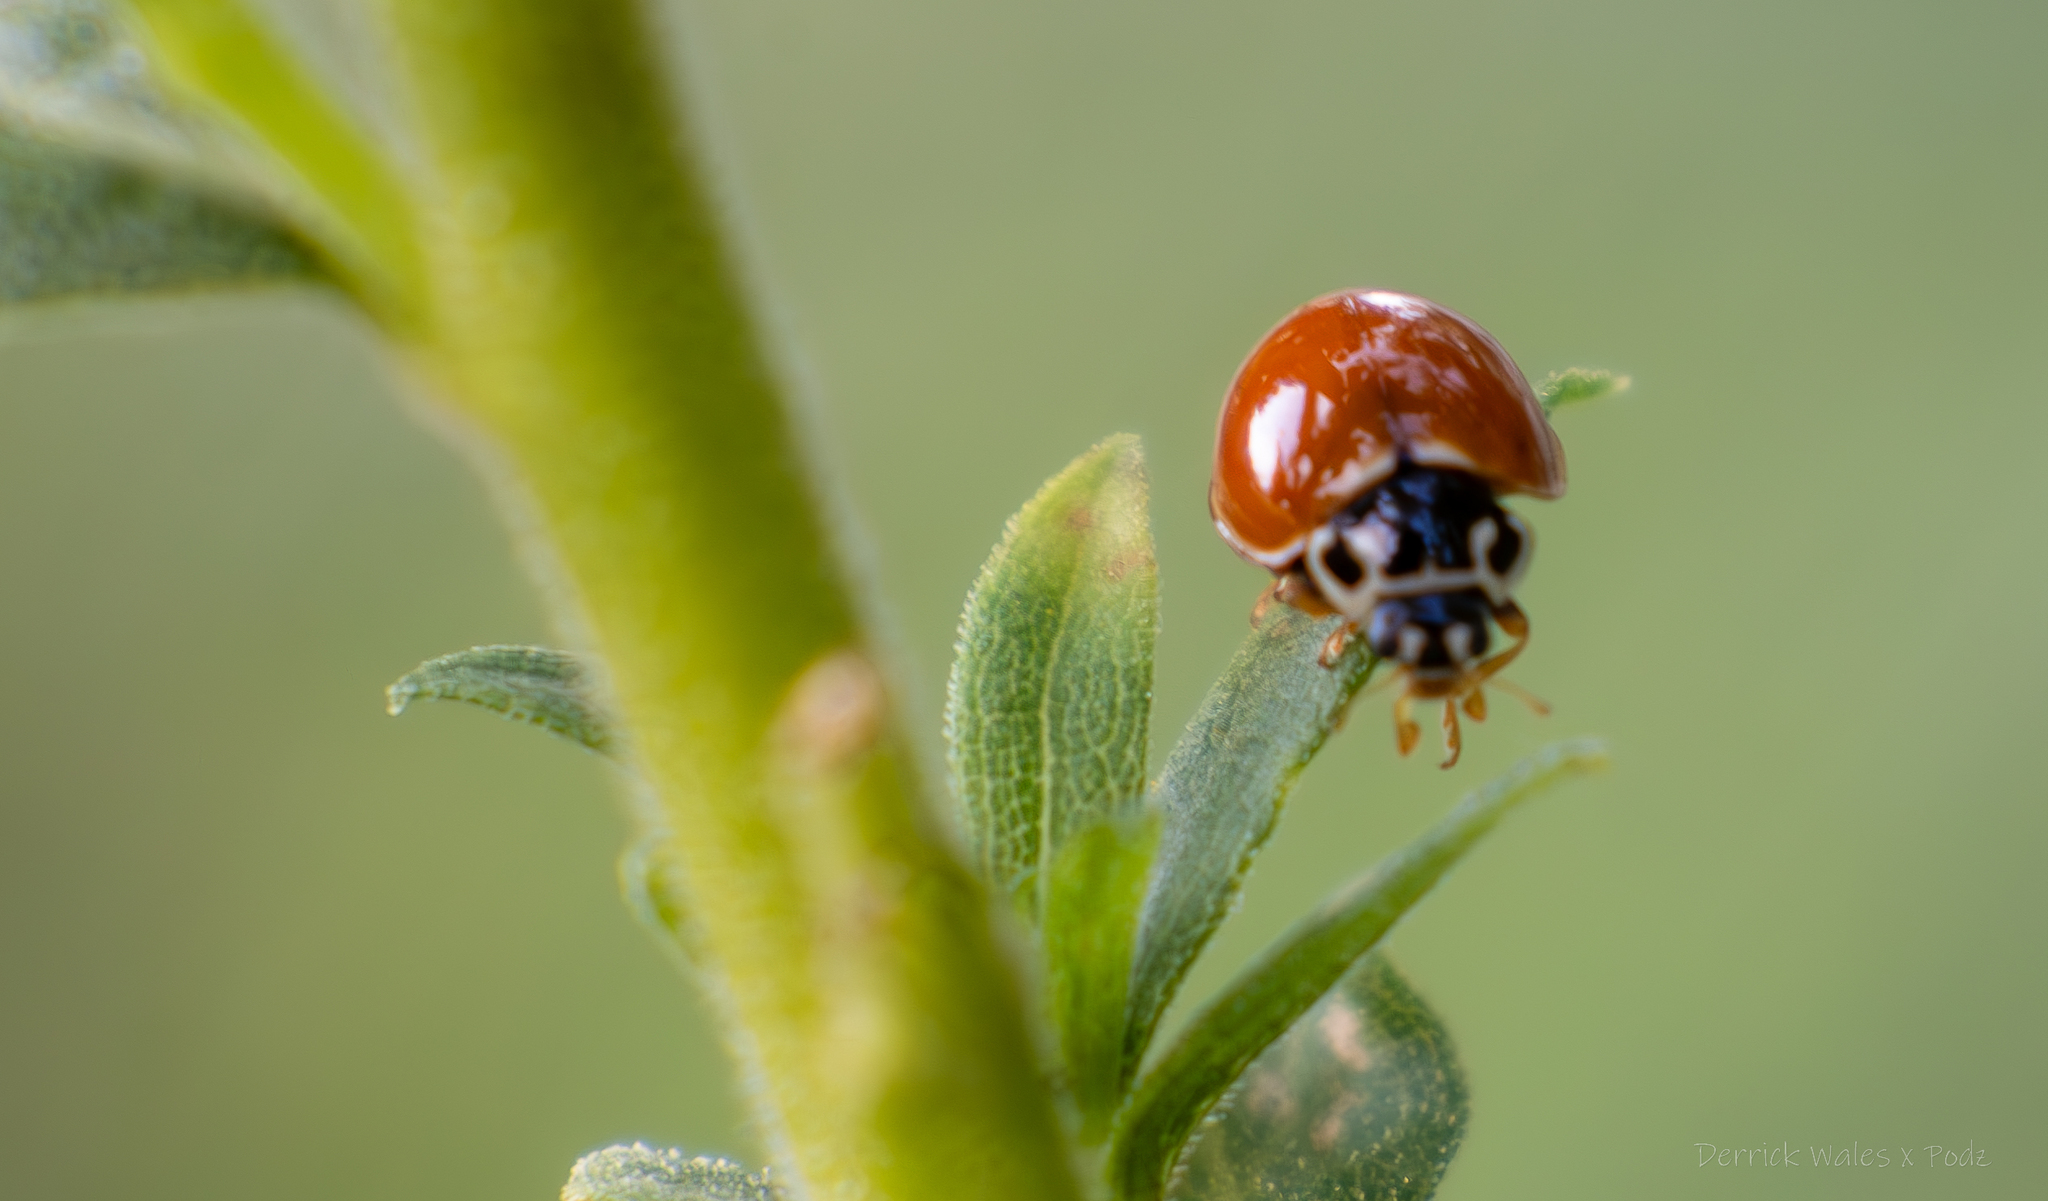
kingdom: Animalia
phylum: Arthropoda
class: Insecta
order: Coleoptera
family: Coccinellidae
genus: Cycloneda
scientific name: Cycloneda munda
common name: Polished lady beetle
